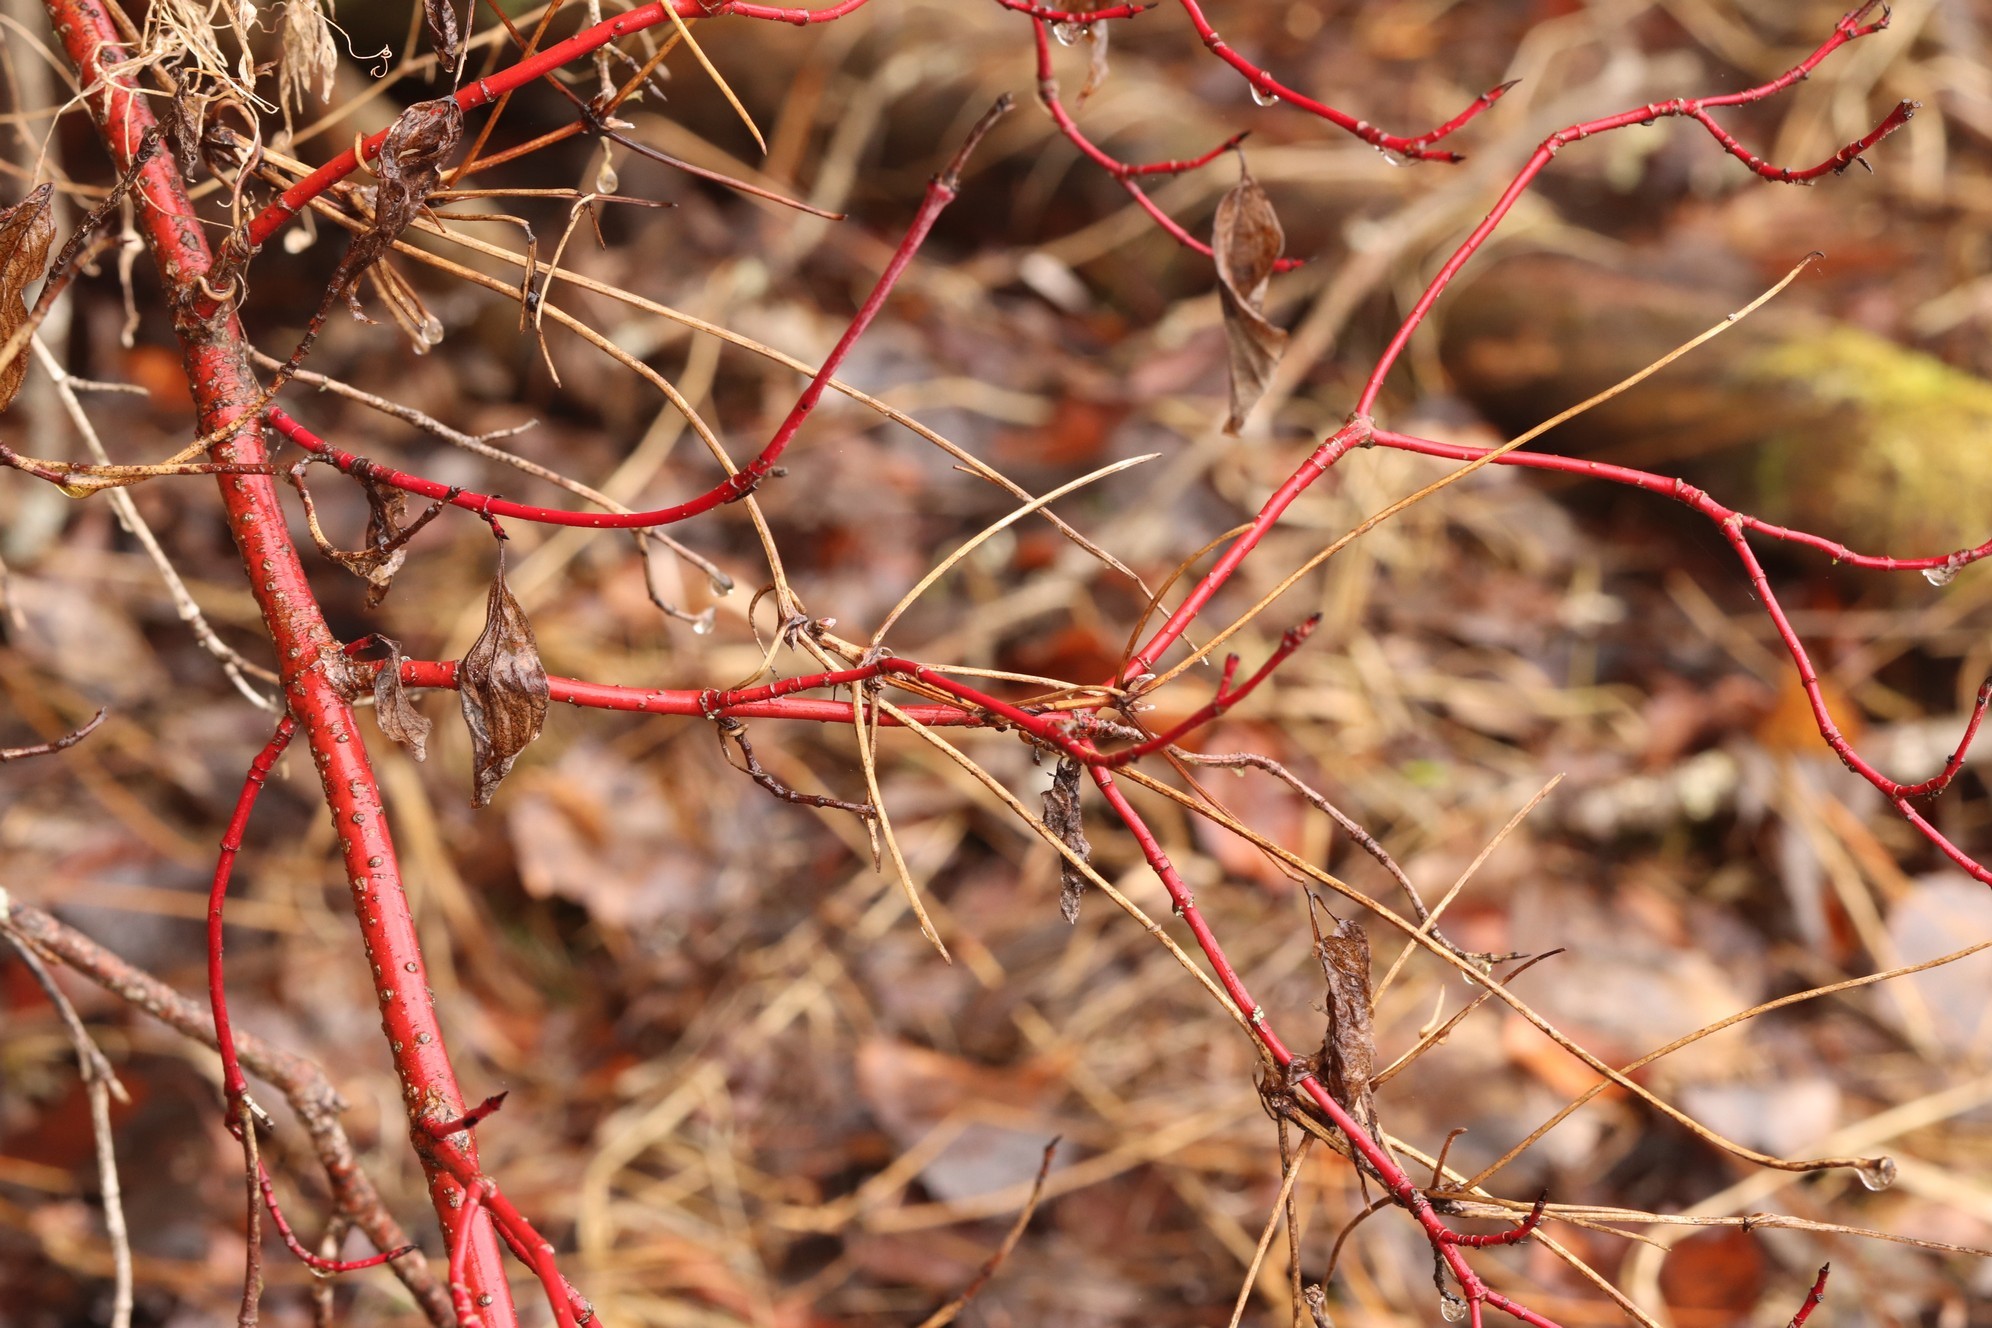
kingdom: Plantae
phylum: Tracheophyta
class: Magnoliopsida
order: Cornales
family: Cornaceae
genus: Cornus
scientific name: Cornus alba
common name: White dogwood
